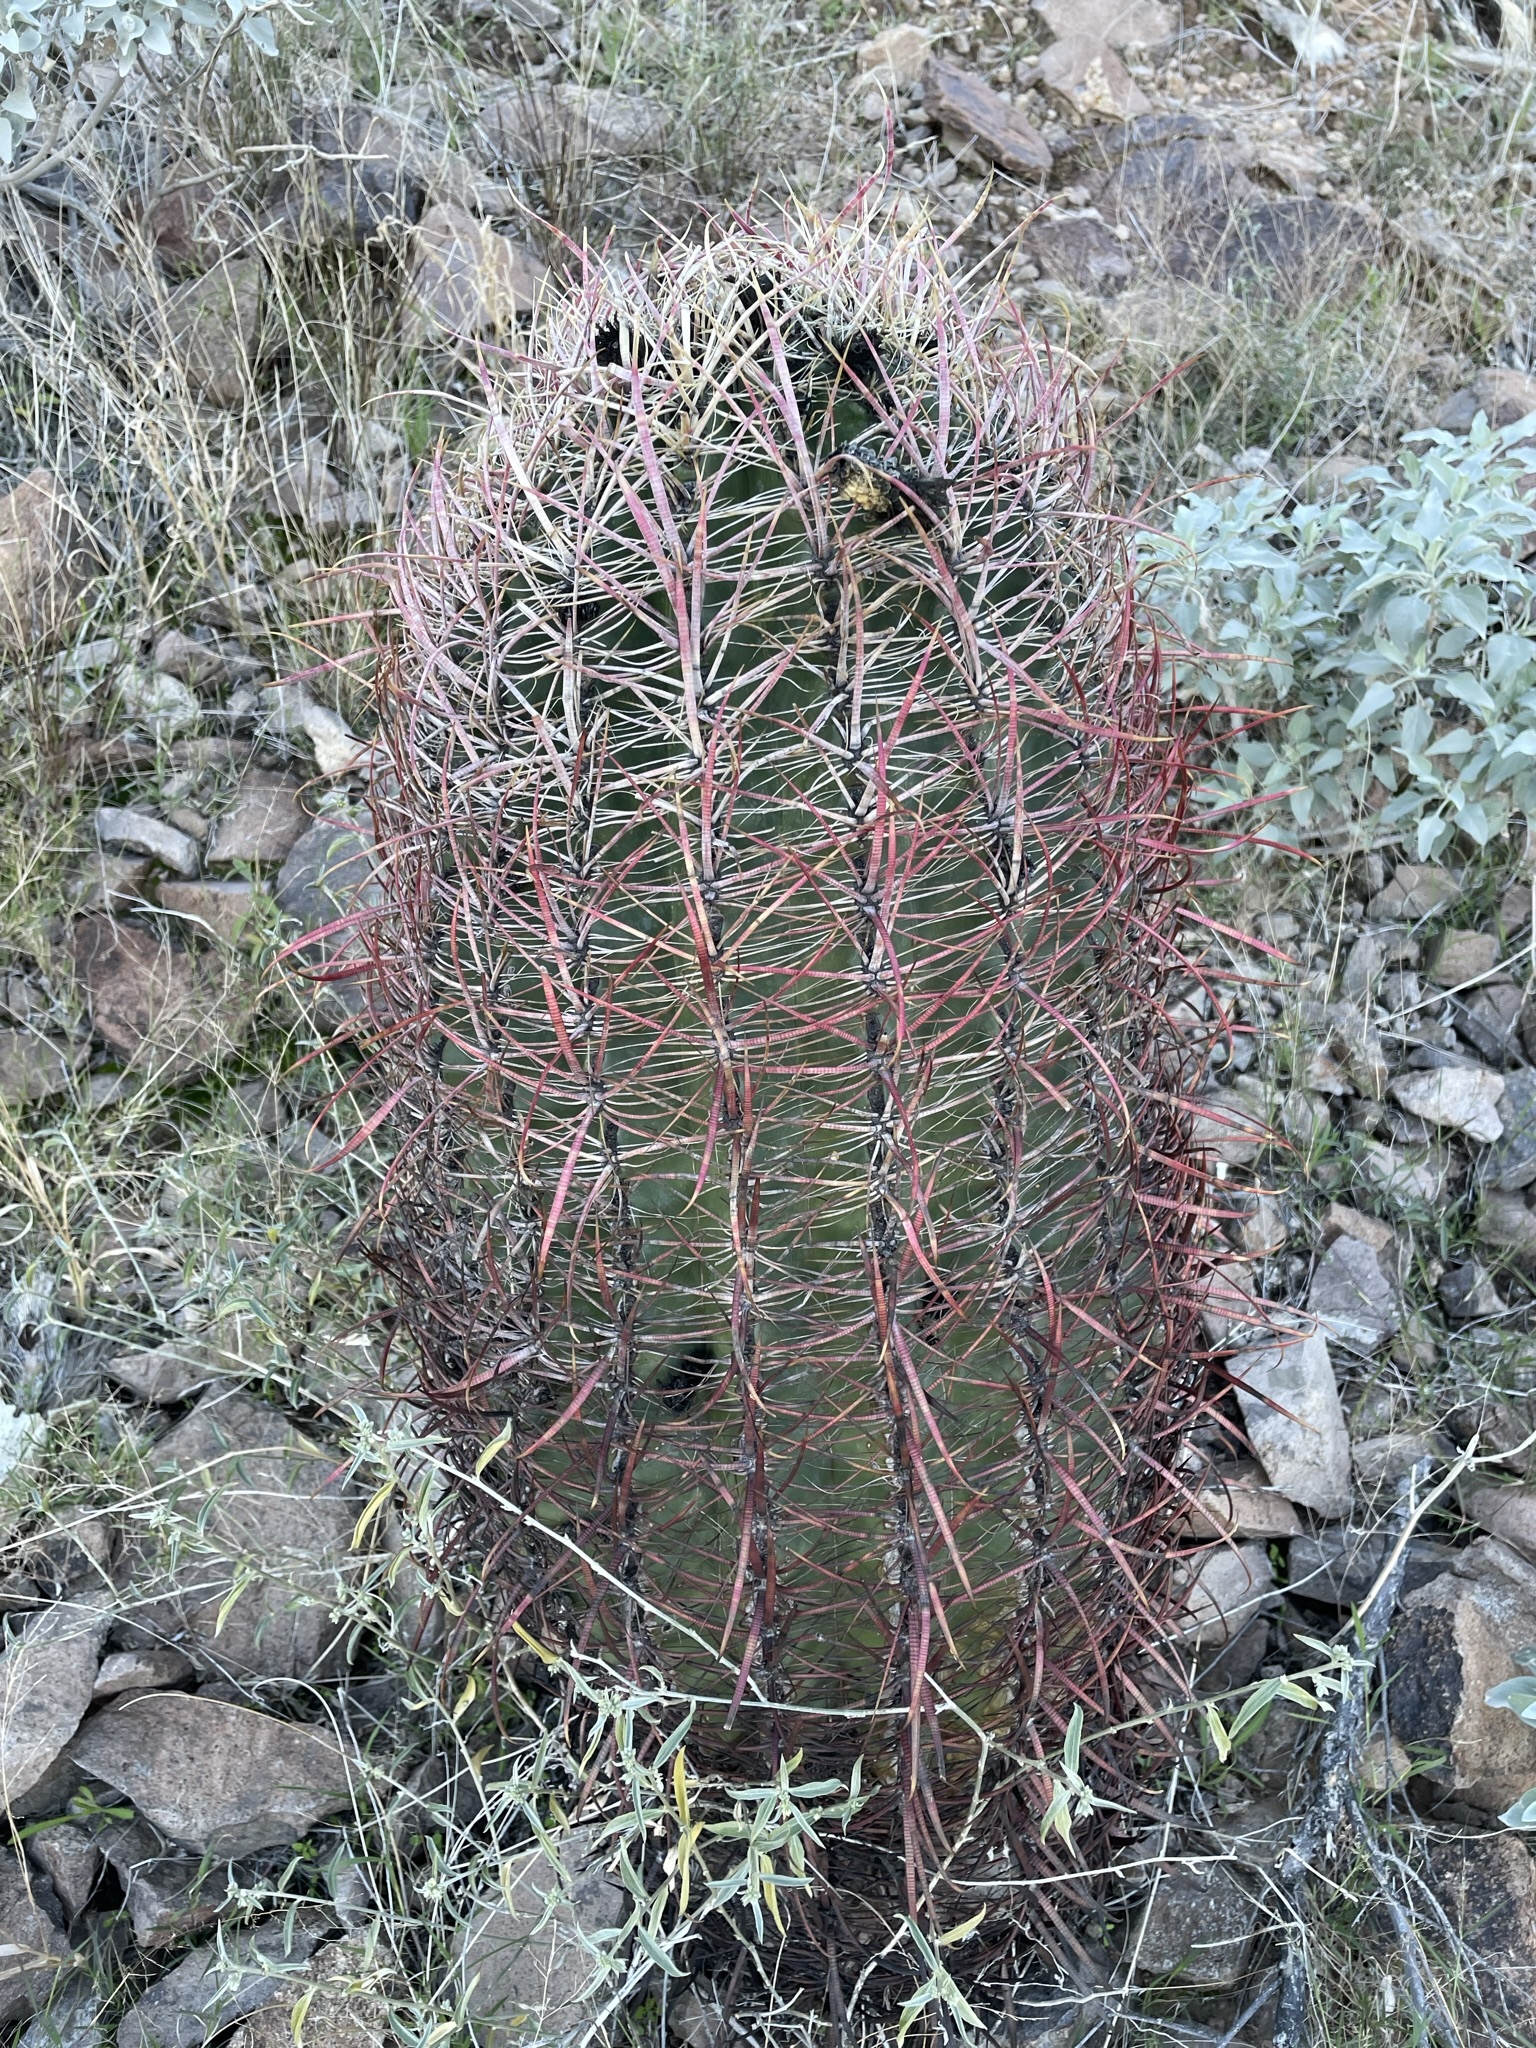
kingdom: Plantae
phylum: Tracheophyta
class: Magnoliopsida
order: Caryophyllales
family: Cactaceae
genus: Ferocactus
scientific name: Ferocactus cylindraceus
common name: California barrel cactus
